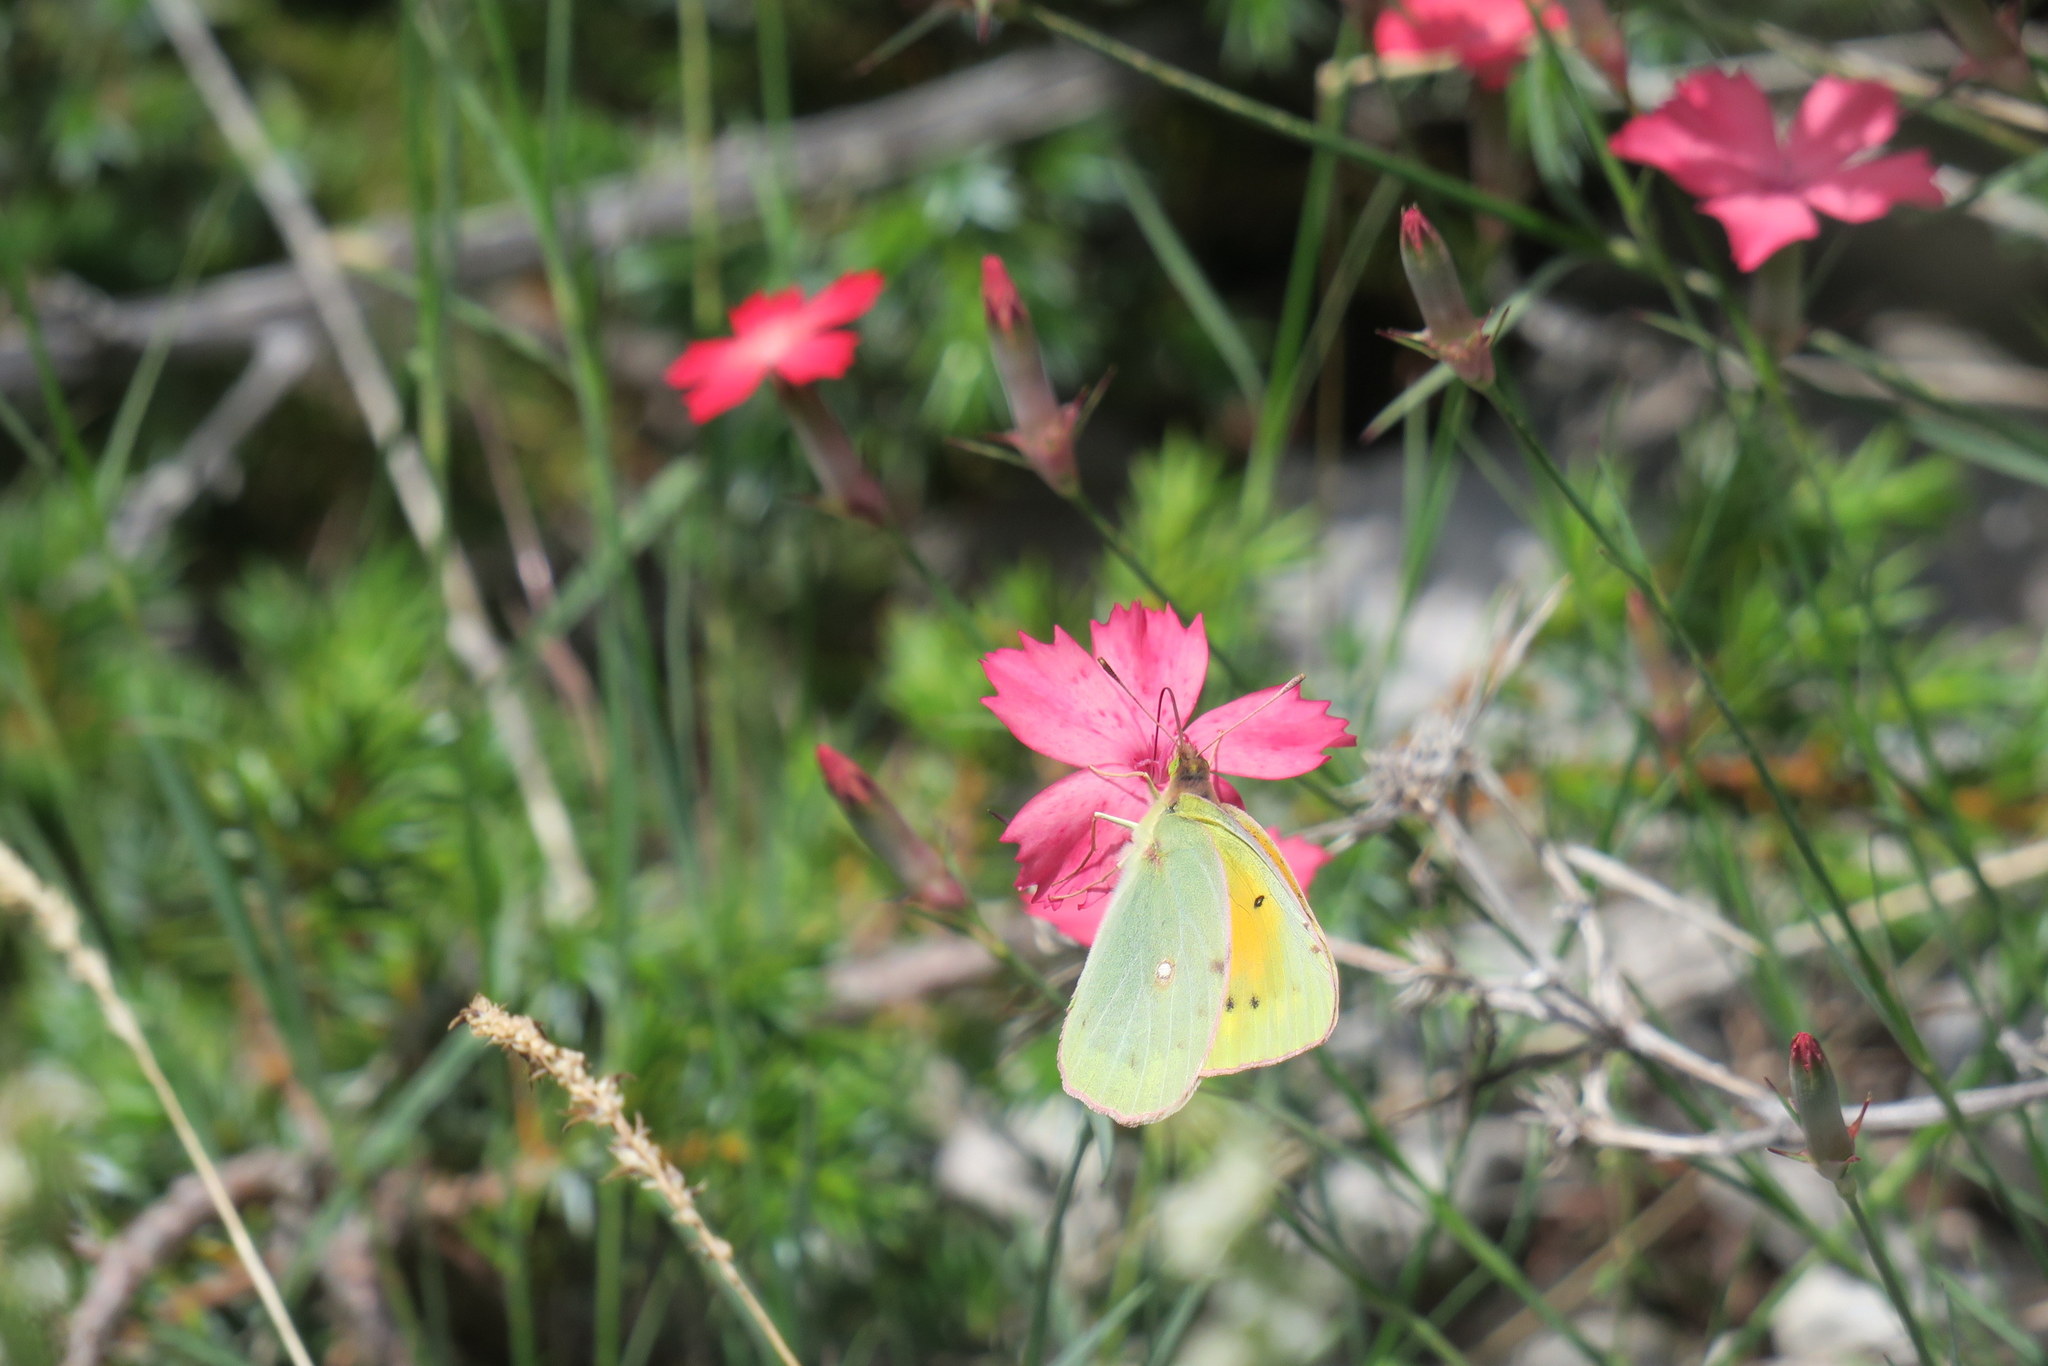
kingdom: Animalia
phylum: Arthropoda
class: Insecta
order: Lepidoptera
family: Pieridae
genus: Colias
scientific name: Colias aurorina
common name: Greek clouded yellow
